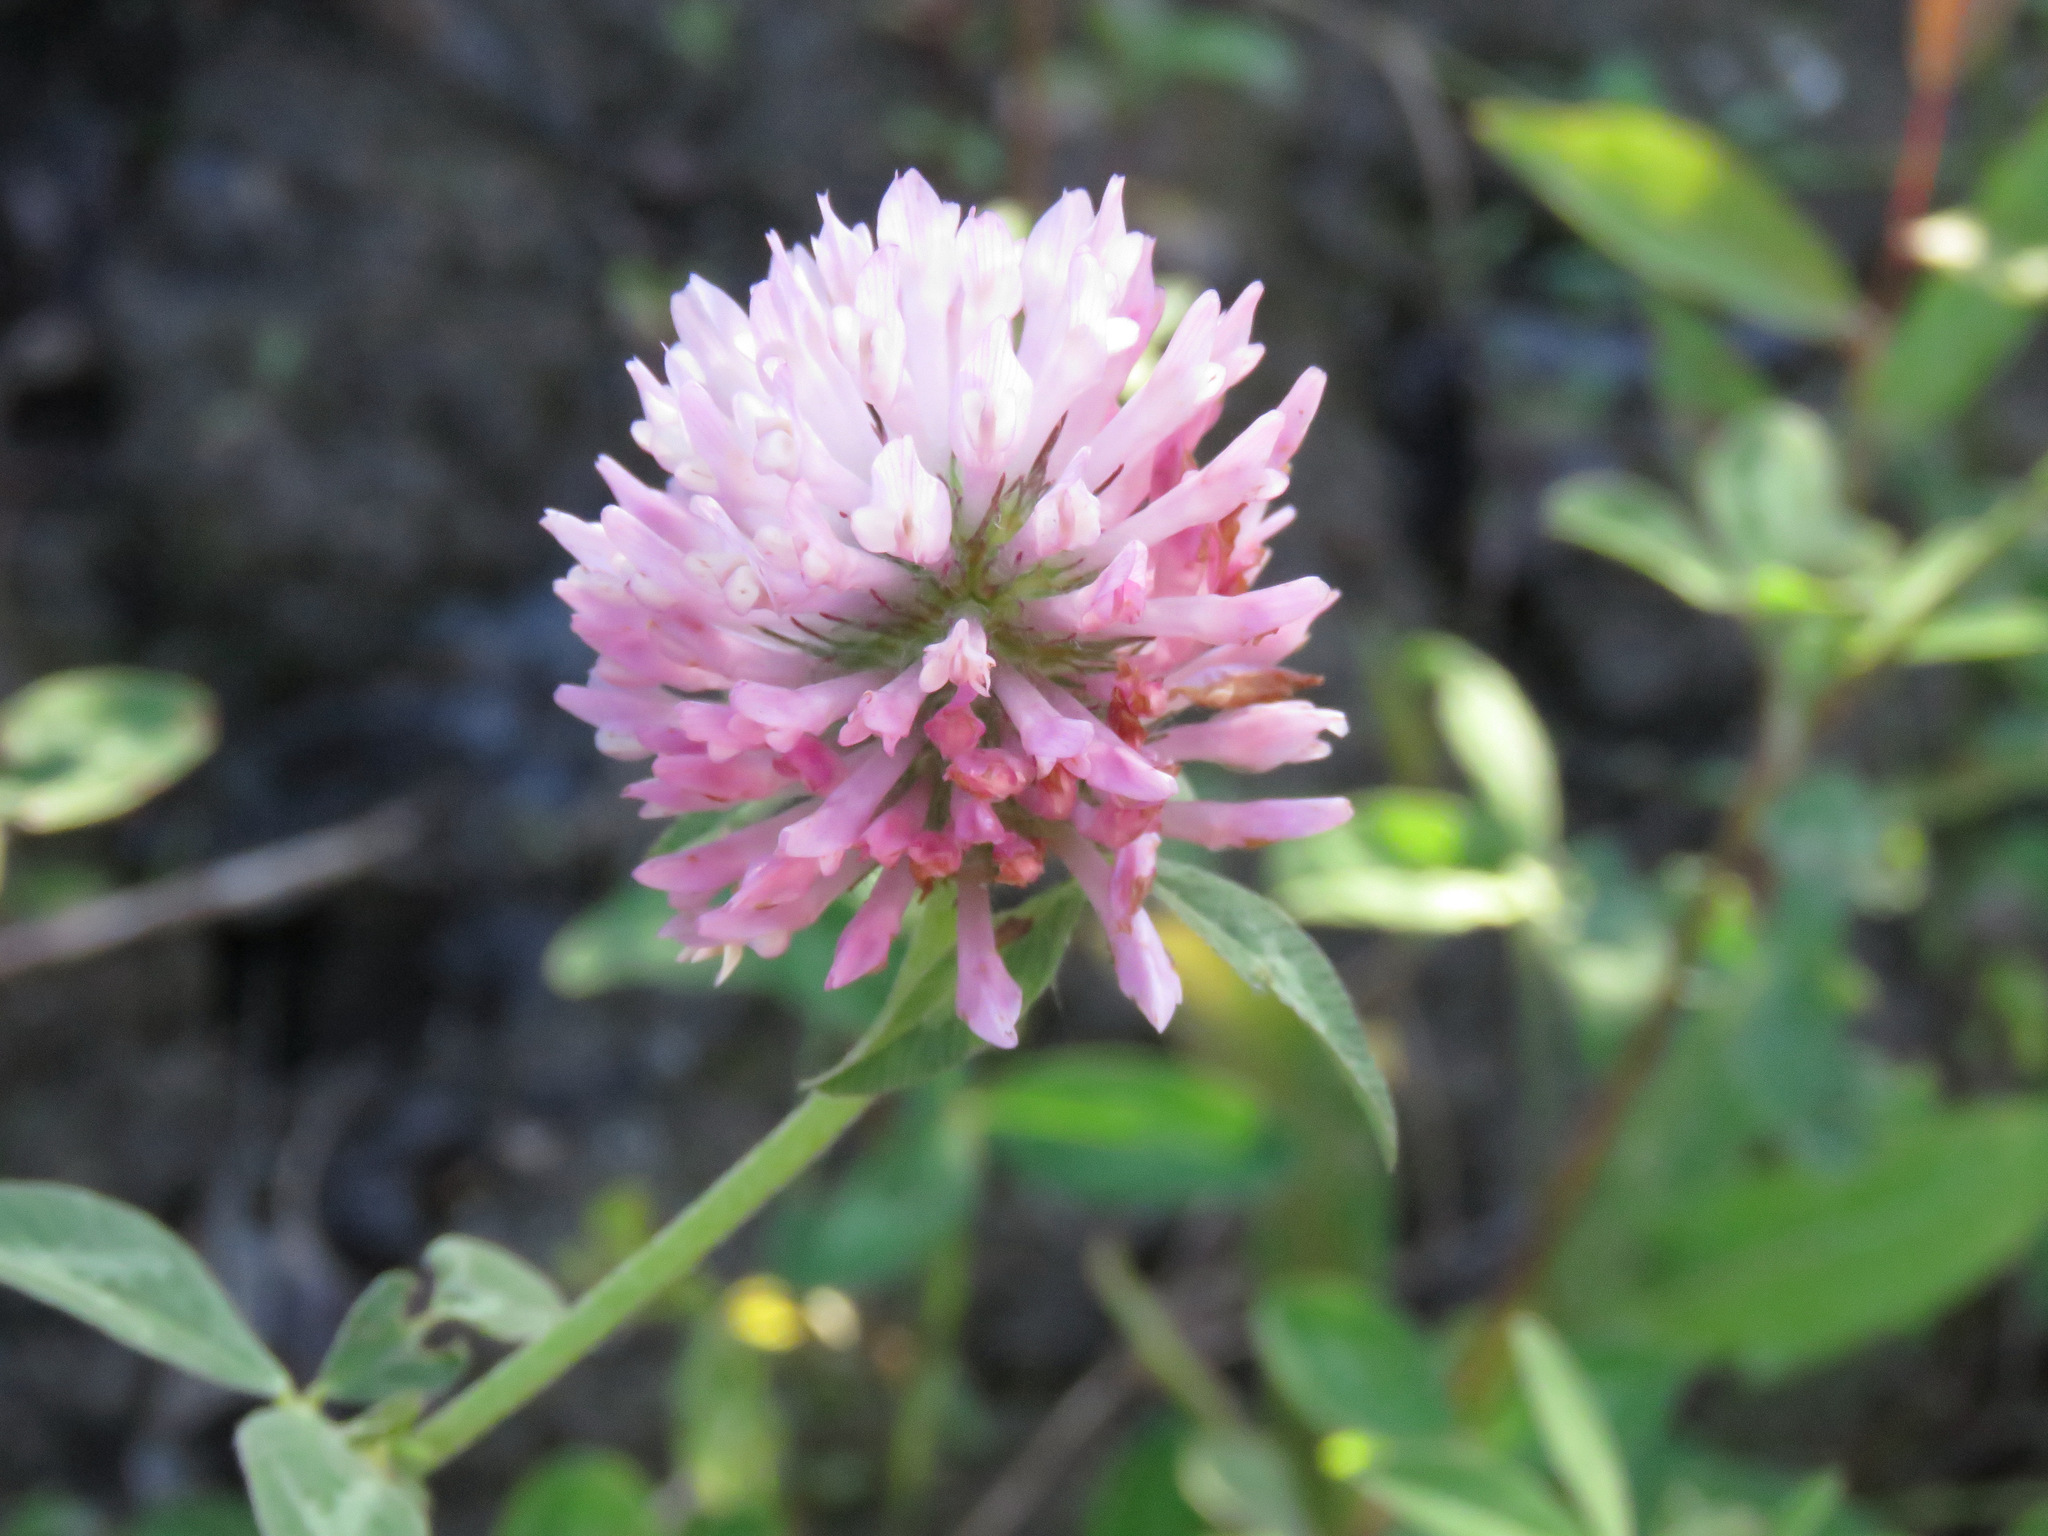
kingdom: Plantae
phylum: Tracheophyta
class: Magnoliopsida
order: Fabales
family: Fabaceae
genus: Trifolium
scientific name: Trifolium pratense
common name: Red clover
